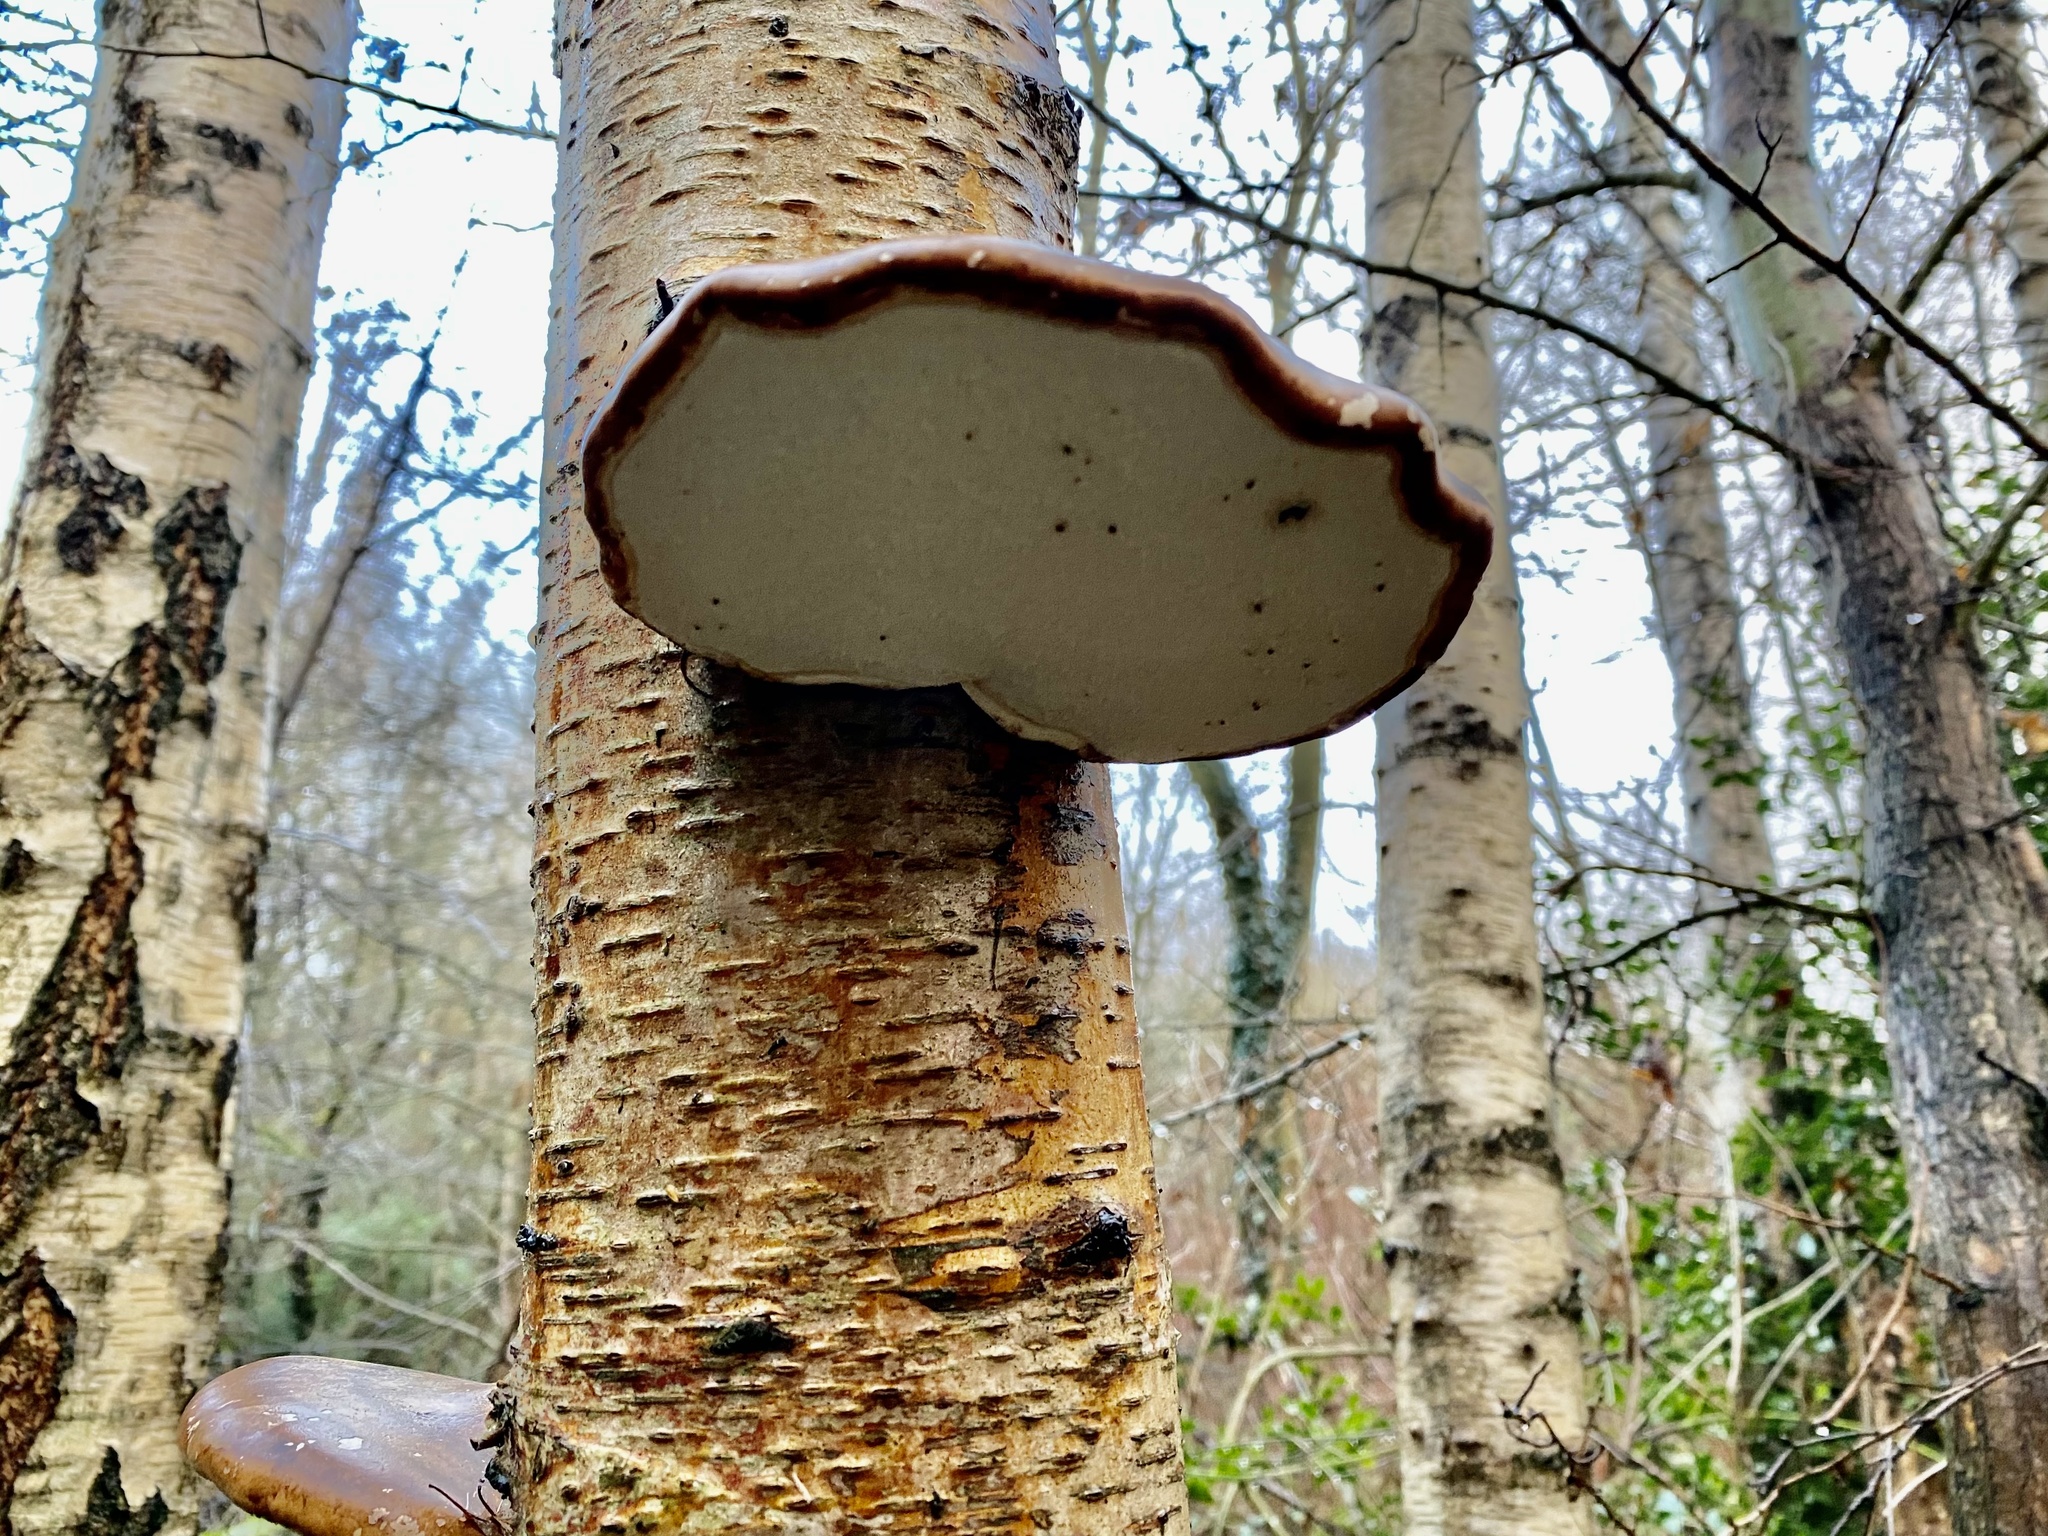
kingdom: Fungi
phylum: Basidiomycota
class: Agaricomycetes
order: Polyporales
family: Fomitopsidaceae
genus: Fomitopsis
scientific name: Fomitopsis betulina
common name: Birch polypore
